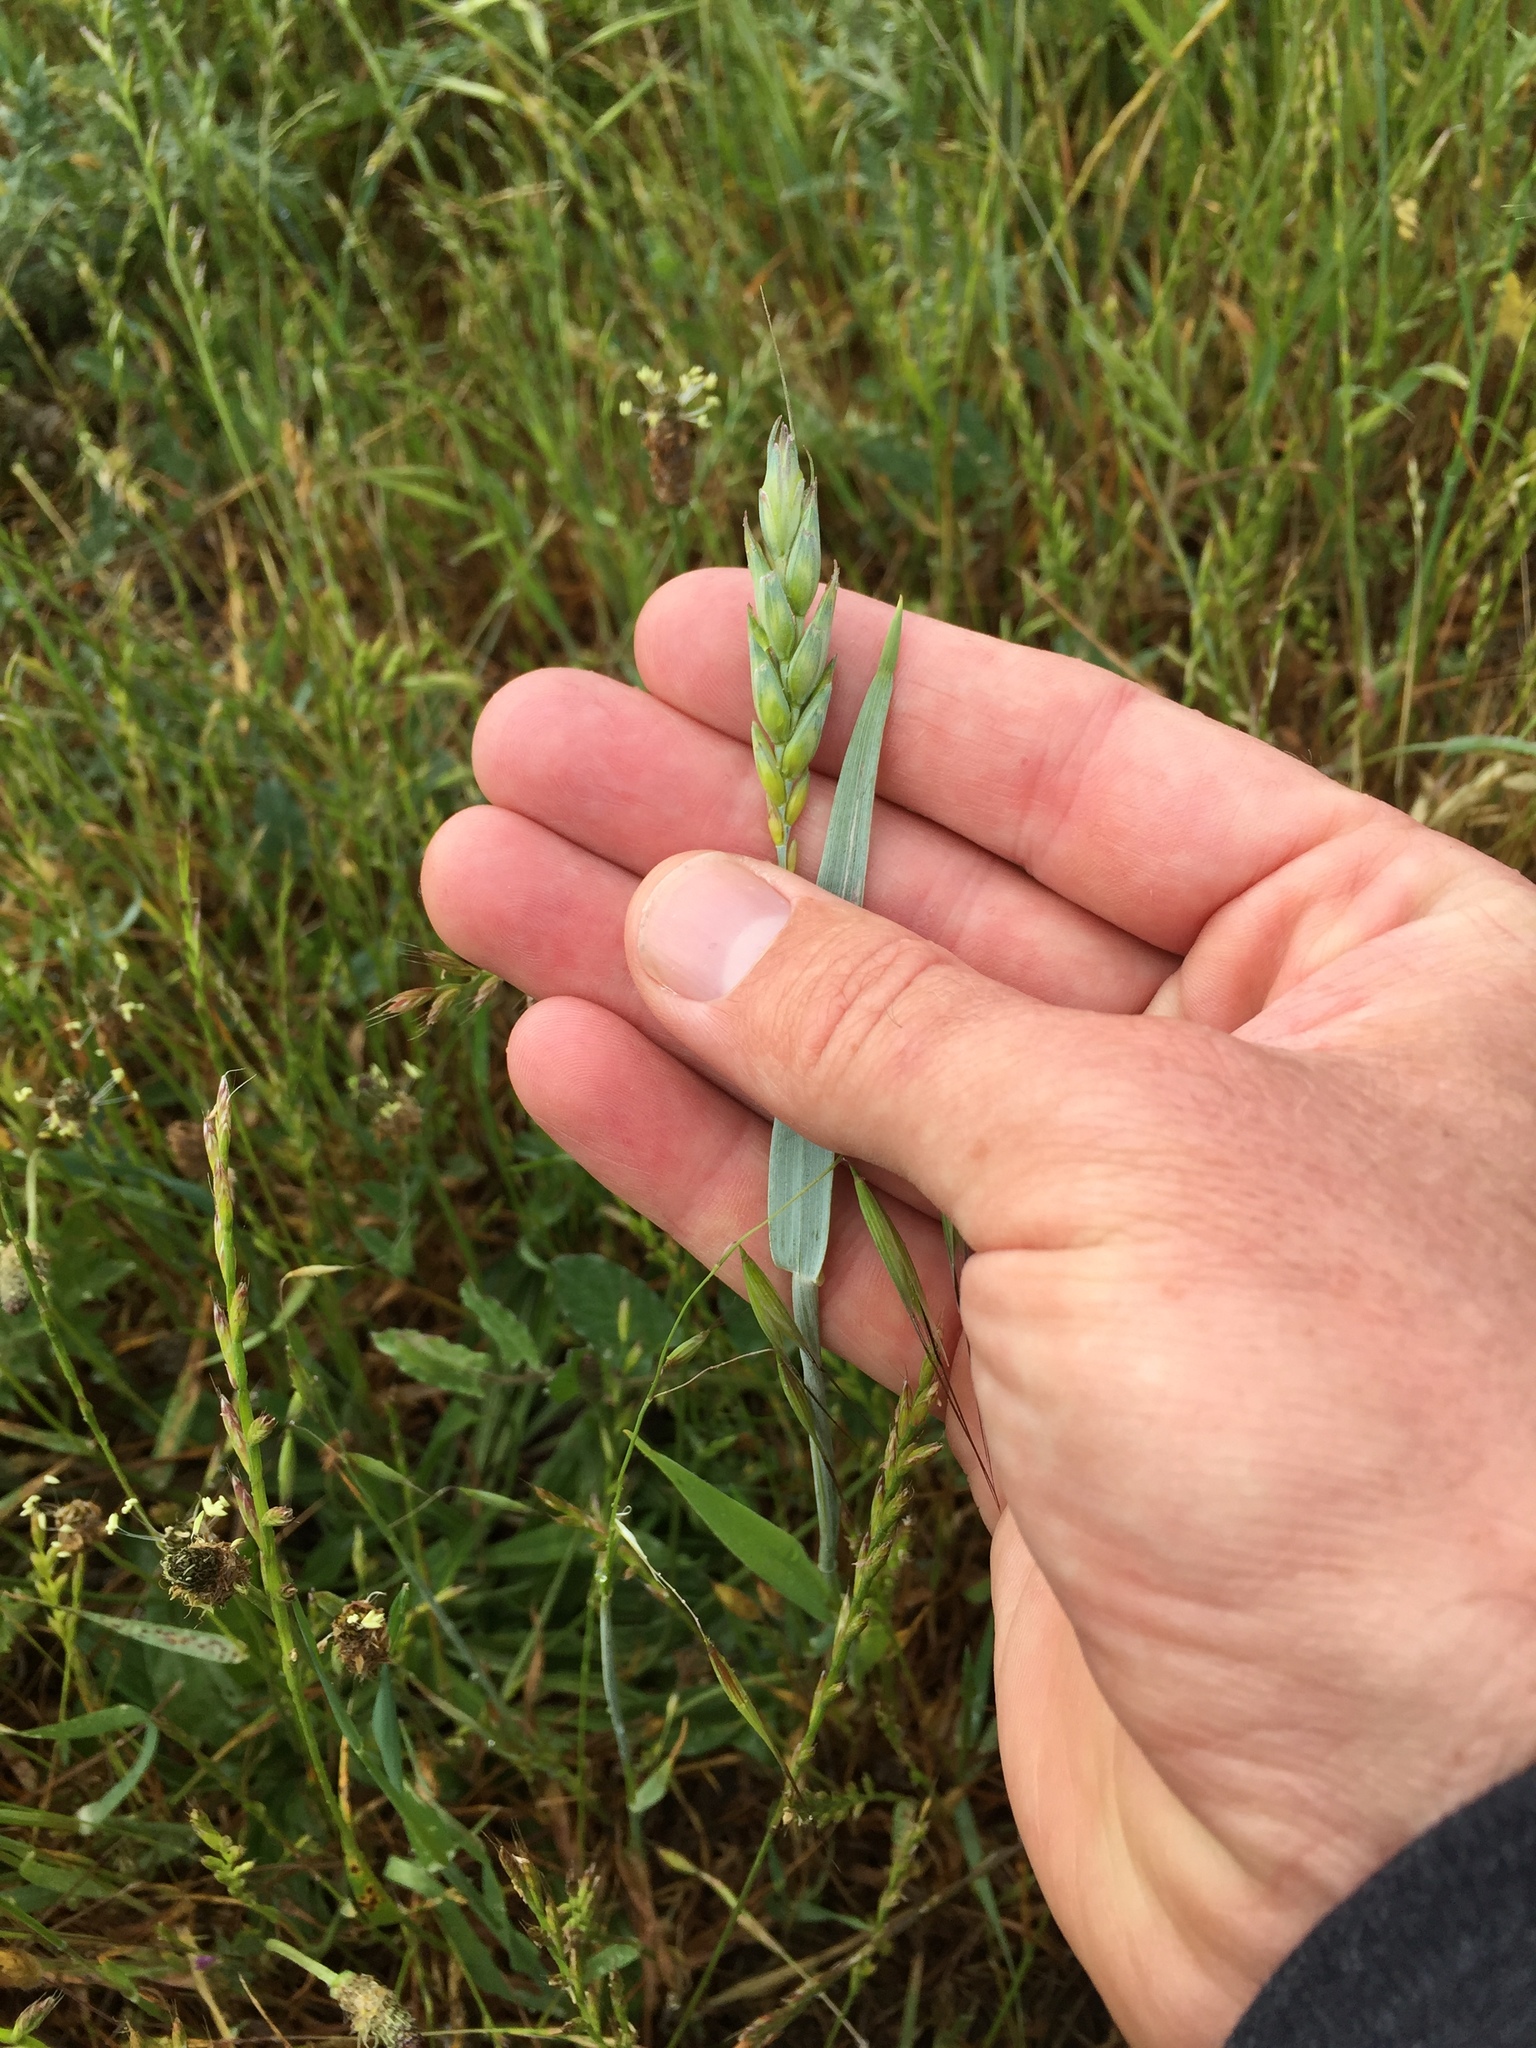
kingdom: Plantae
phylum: Tracheophyta
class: Liliopsida
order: Poales
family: Poaceae
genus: Triticum
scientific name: Triticum aestivum
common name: Common wheat
